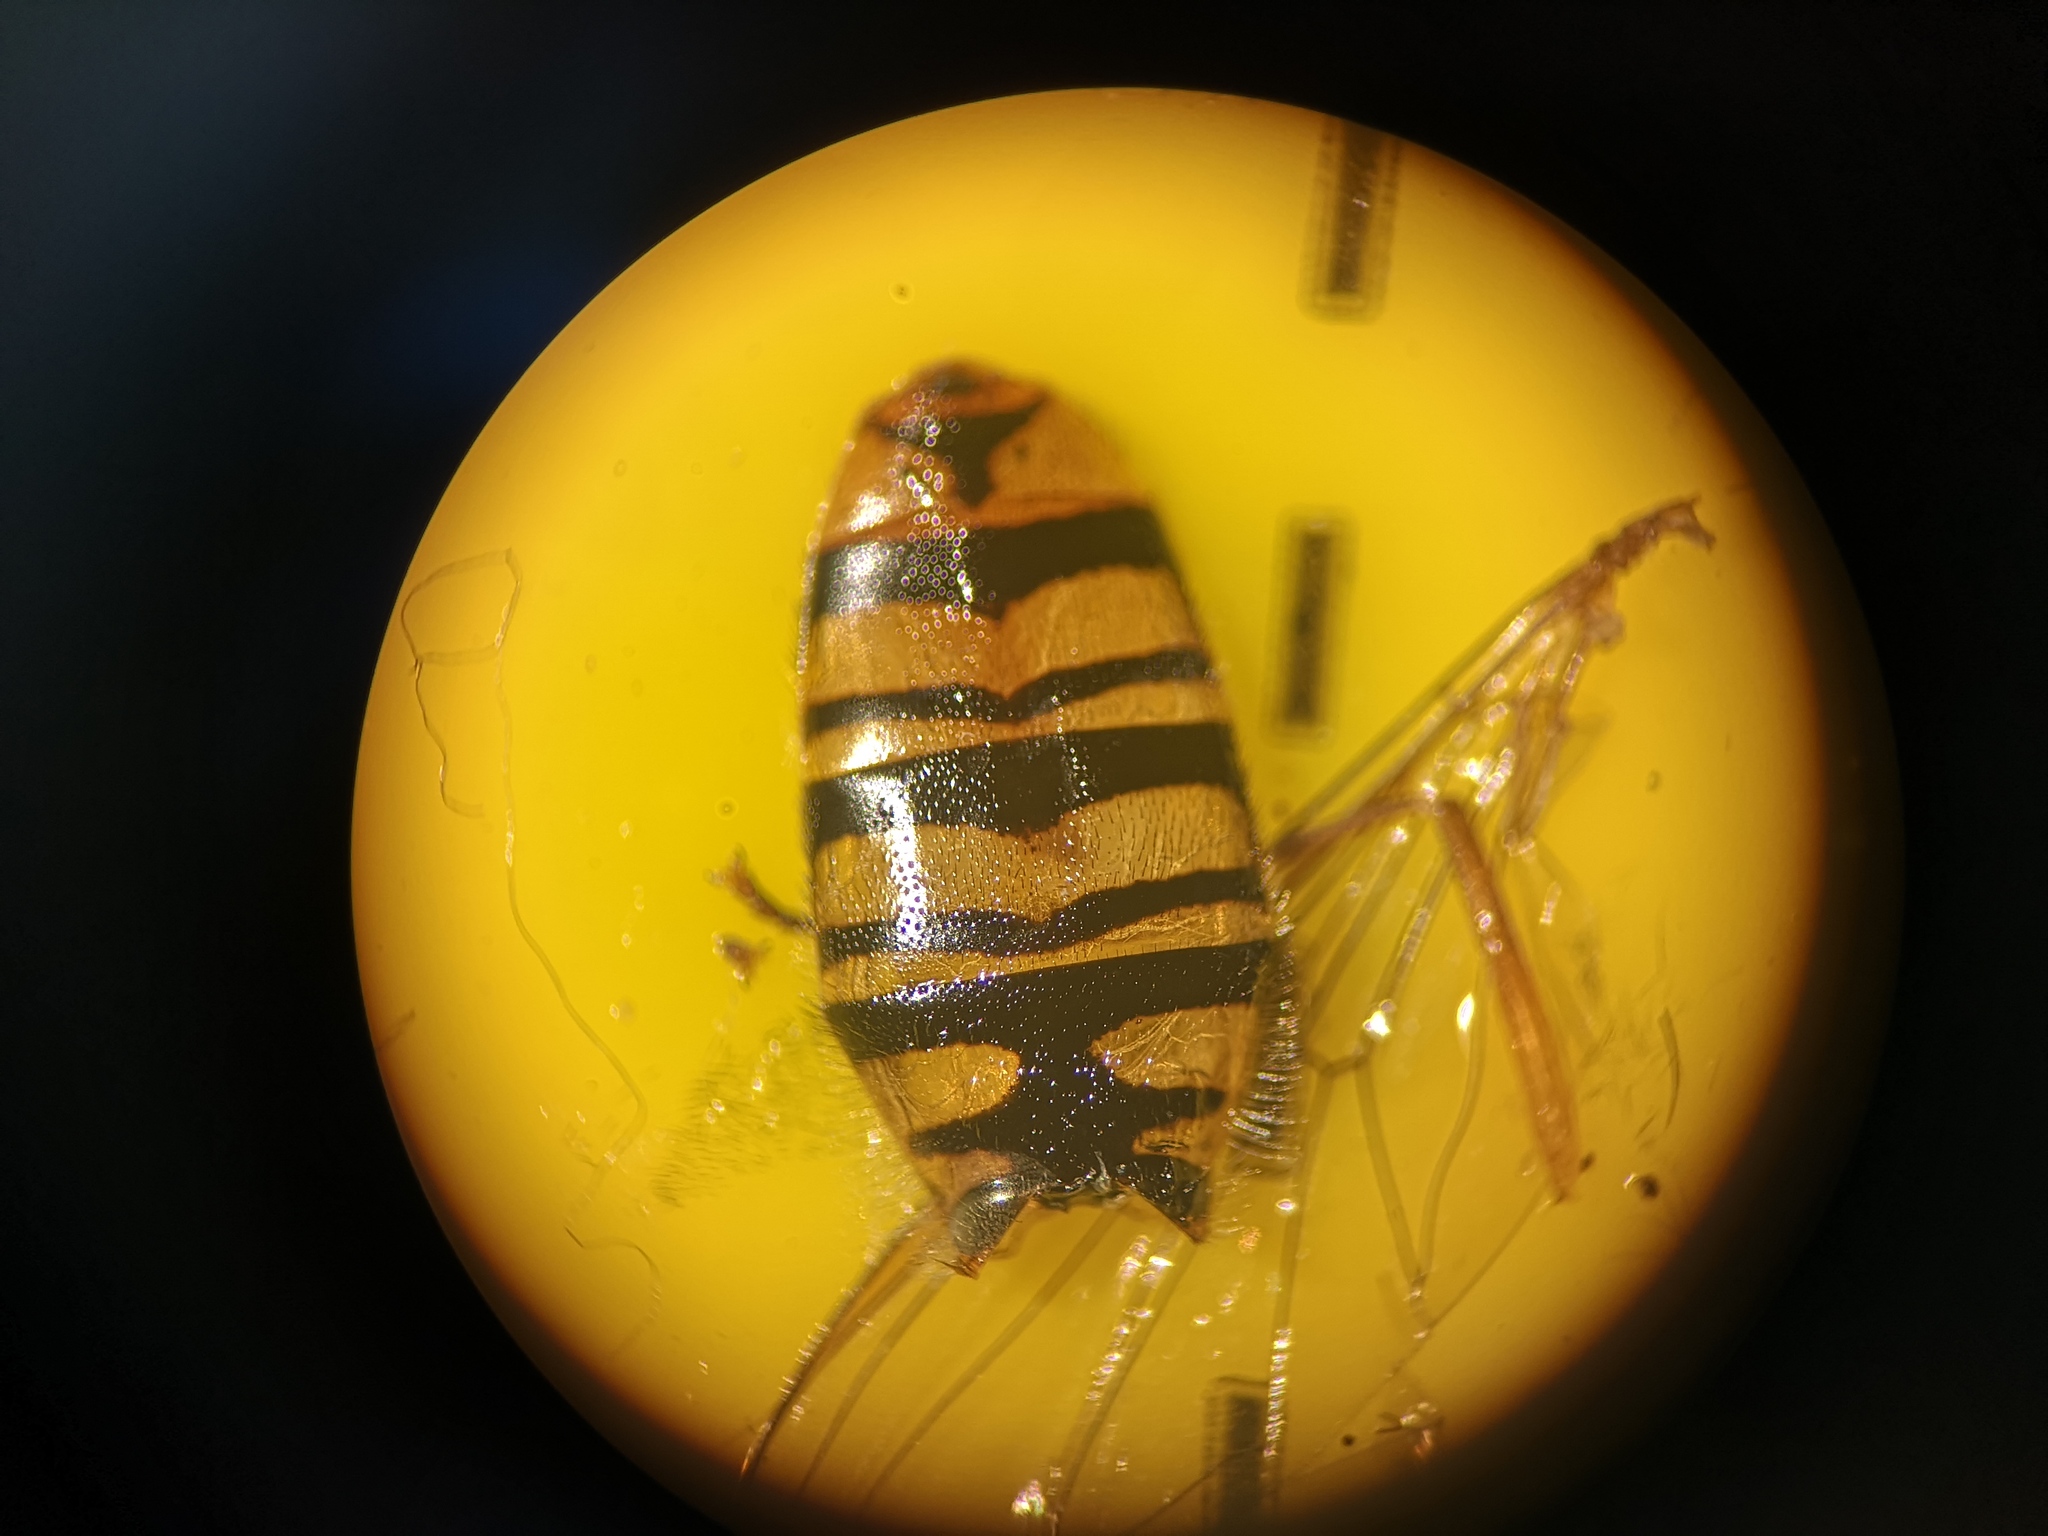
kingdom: Animalia
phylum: Arthropoda
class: Insecta
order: Diptera
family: Syrphidae
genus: Episyrphus
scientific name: Episyrphus balteatus
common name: Marmalade hoverfly
